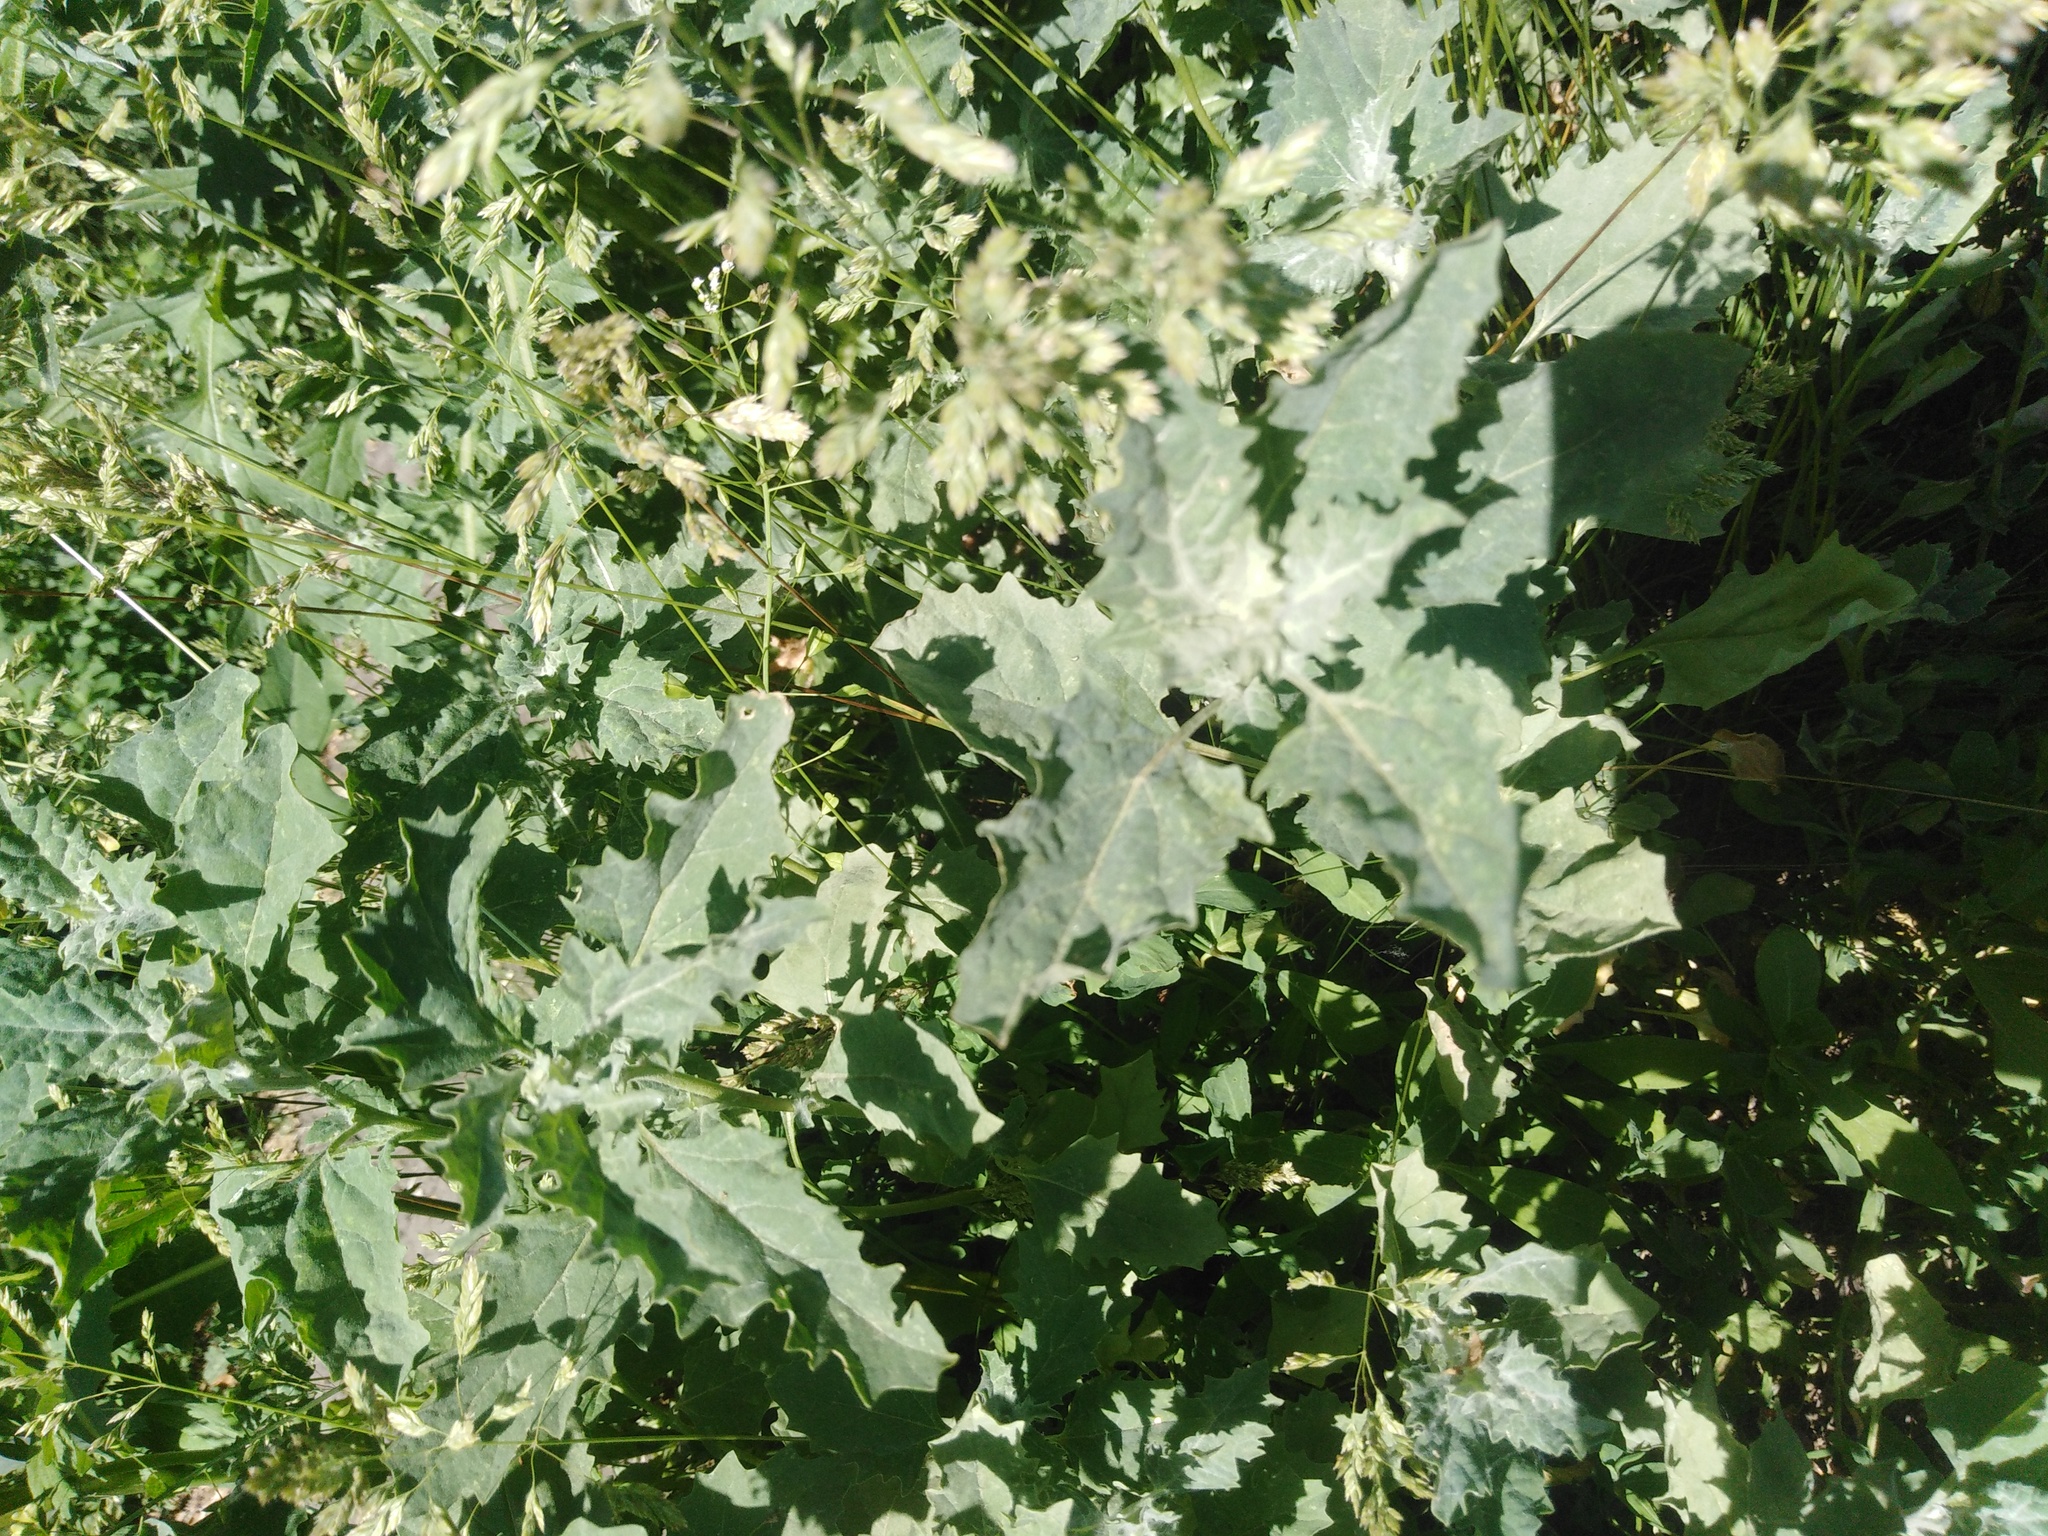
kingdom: Plantae
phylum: Tracheophyta
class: Magnoliopsida
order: Caryophyllales
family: Amaranthaceae
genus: Atriplex
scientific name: Atriplex tatarica
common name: Tatarian orache
